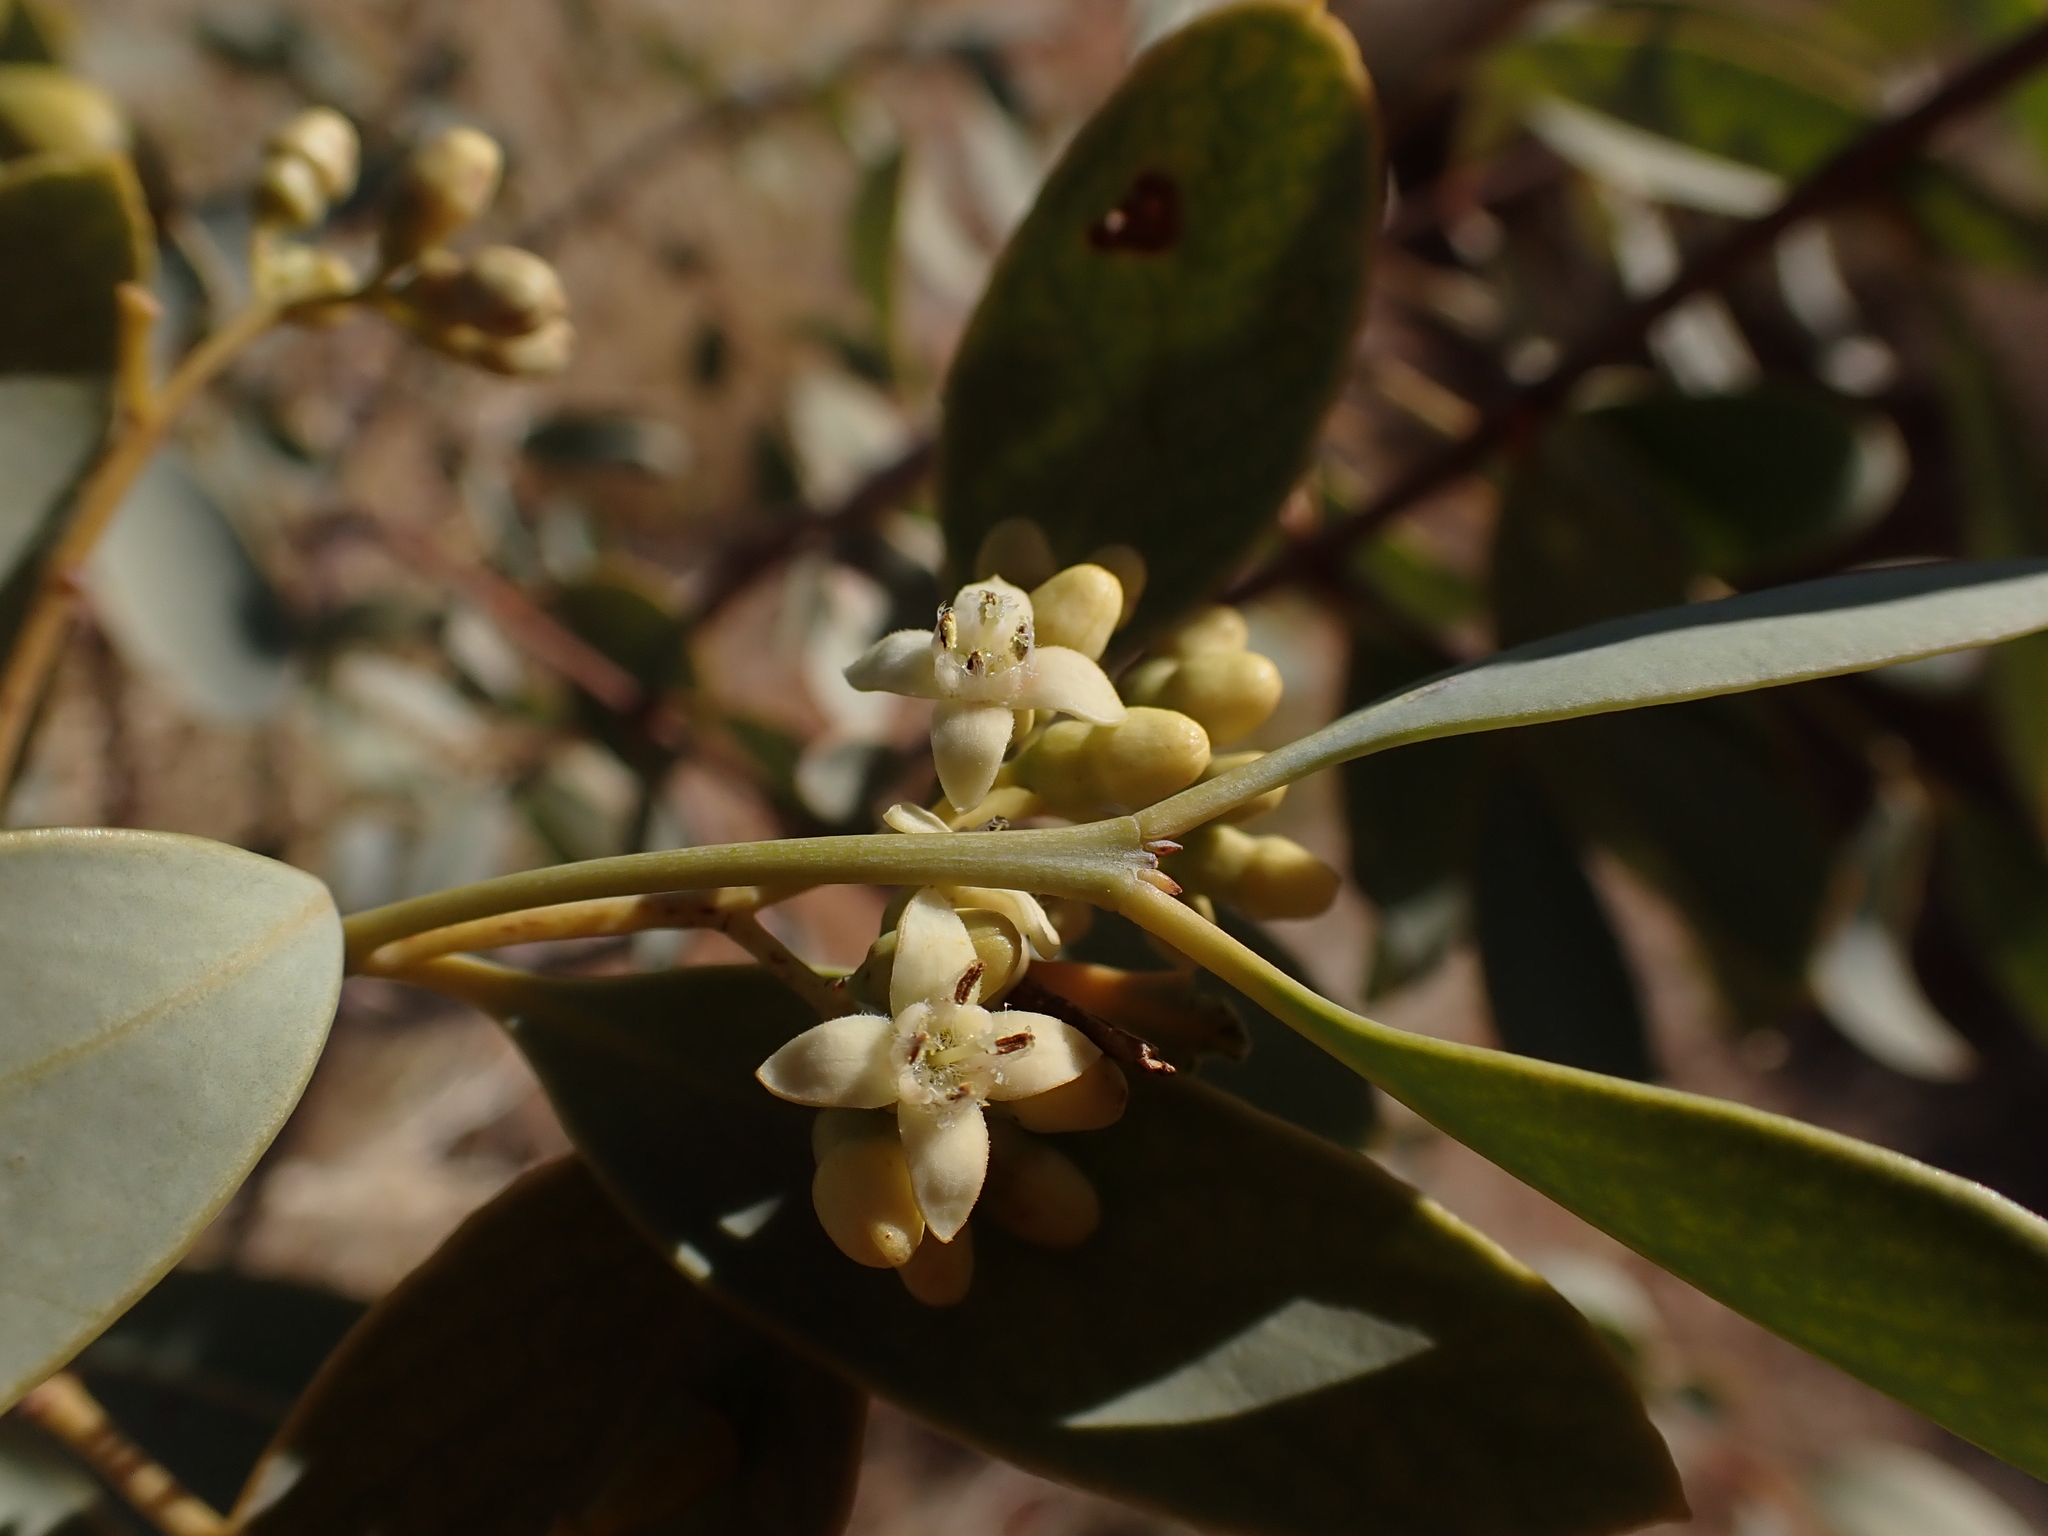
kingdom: Plantae
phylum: Tracheophyta
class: Magnoliopsida
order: Santalales
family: Santalaceae
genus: Santalum
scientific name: Santalum lanceolatum
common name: Ankwerley
